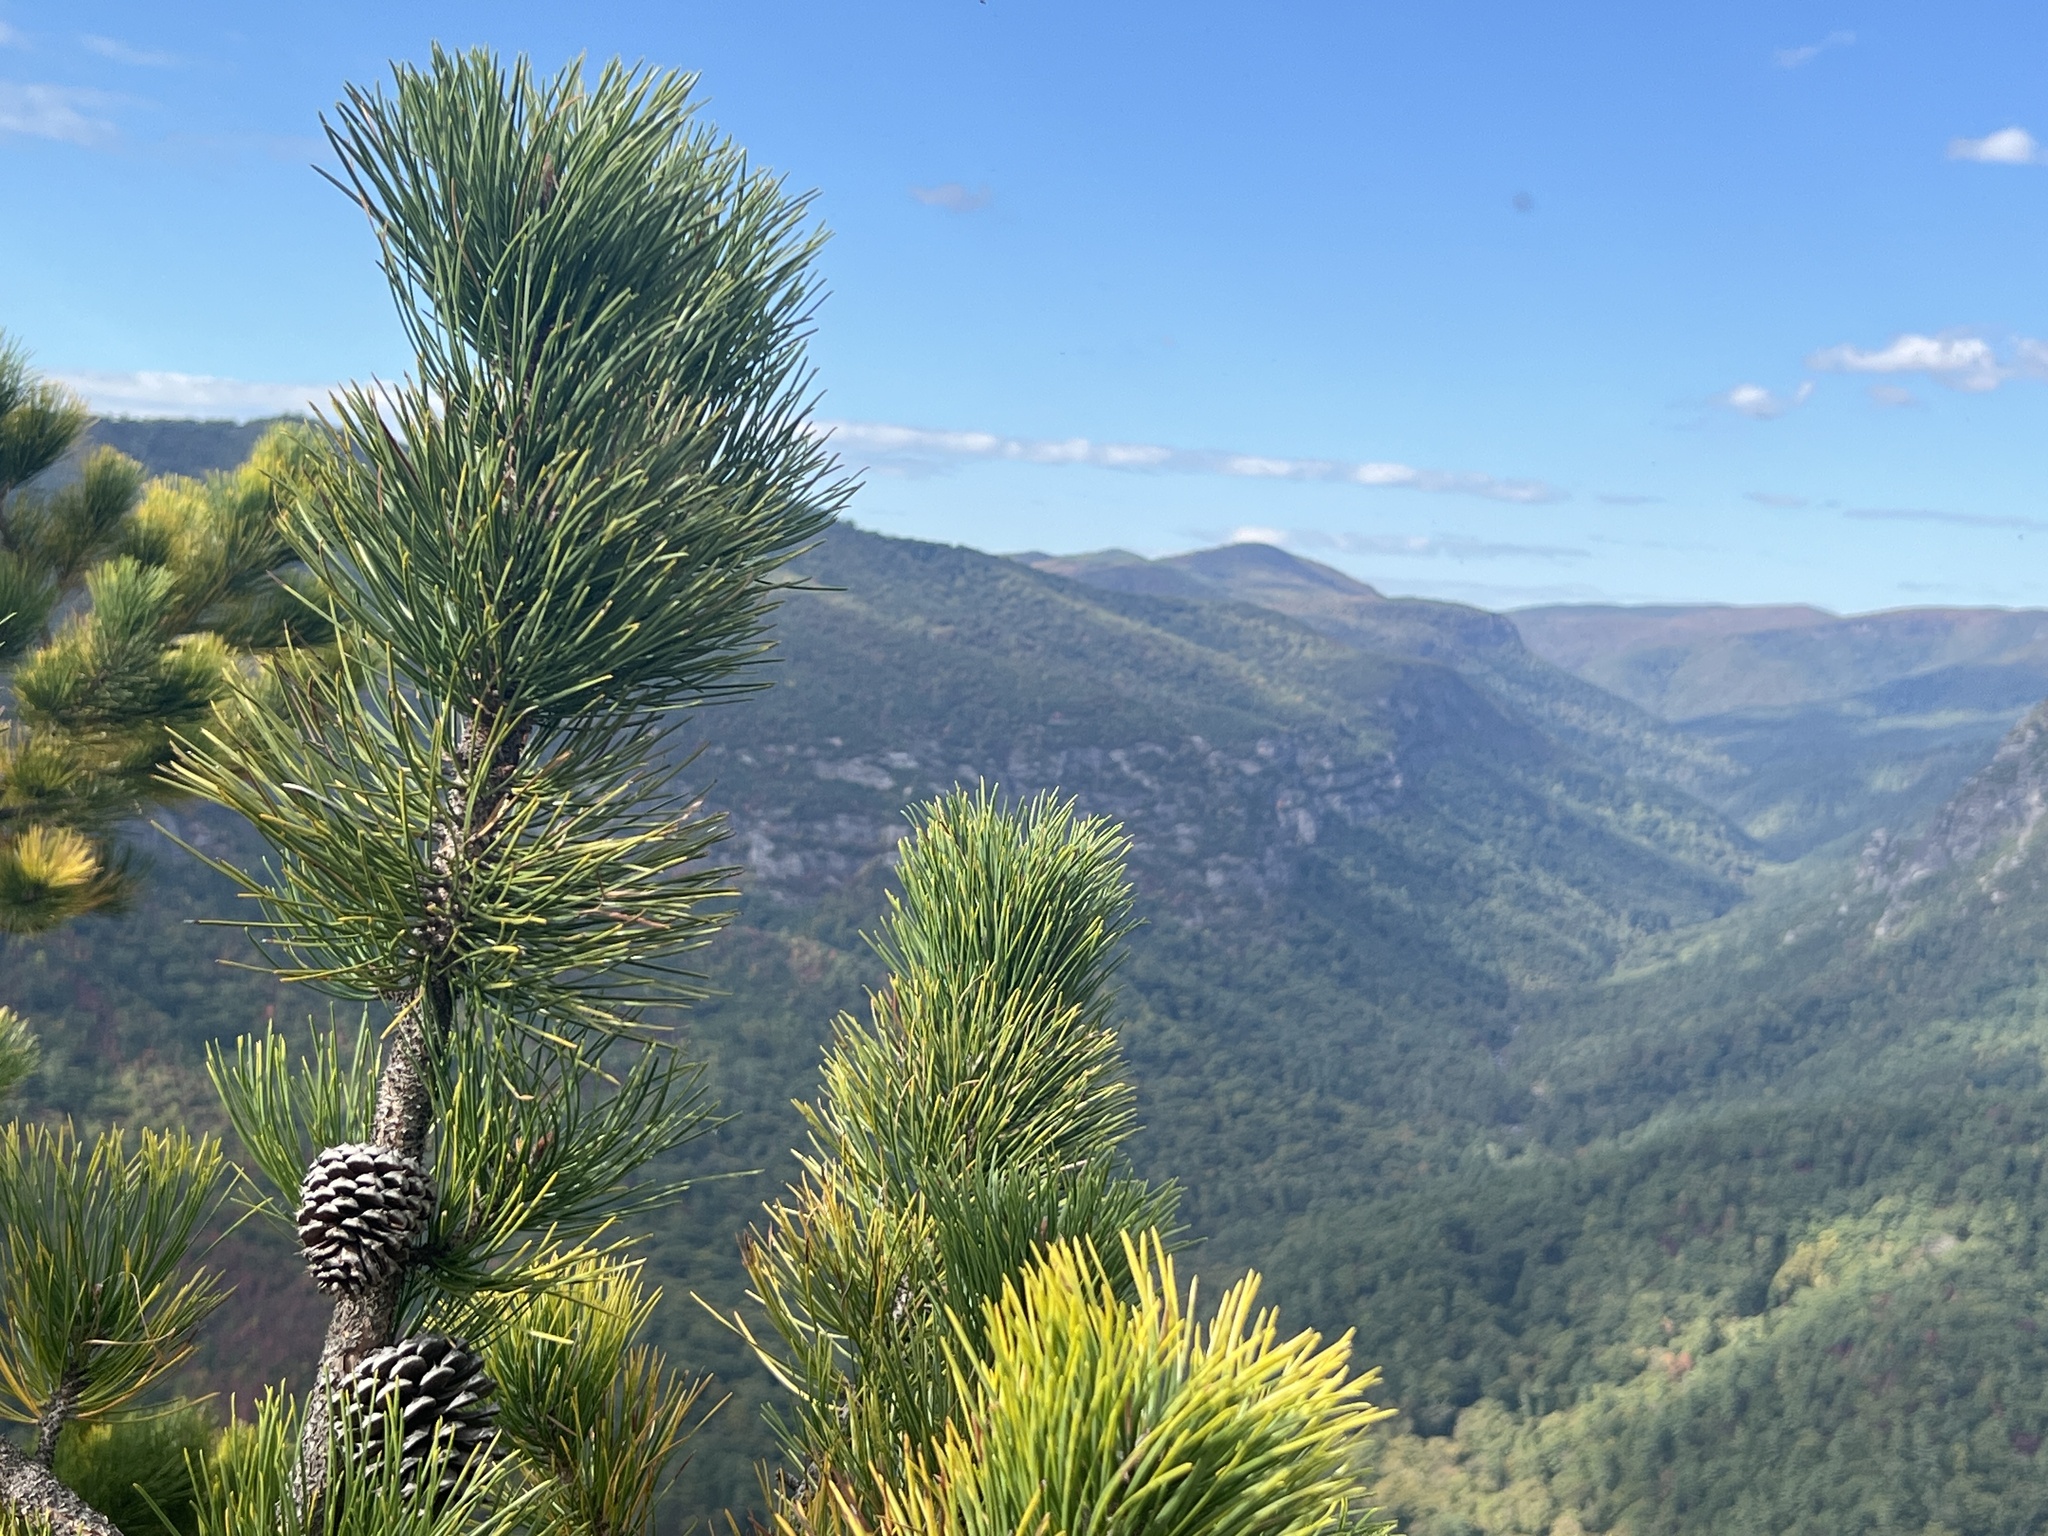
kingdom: Plantae
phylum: Tracheophyta
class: Pinopsida
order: Pinales
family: Pinaceae
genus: Pinus
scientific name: Pinus pungens
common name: Hickory pine
